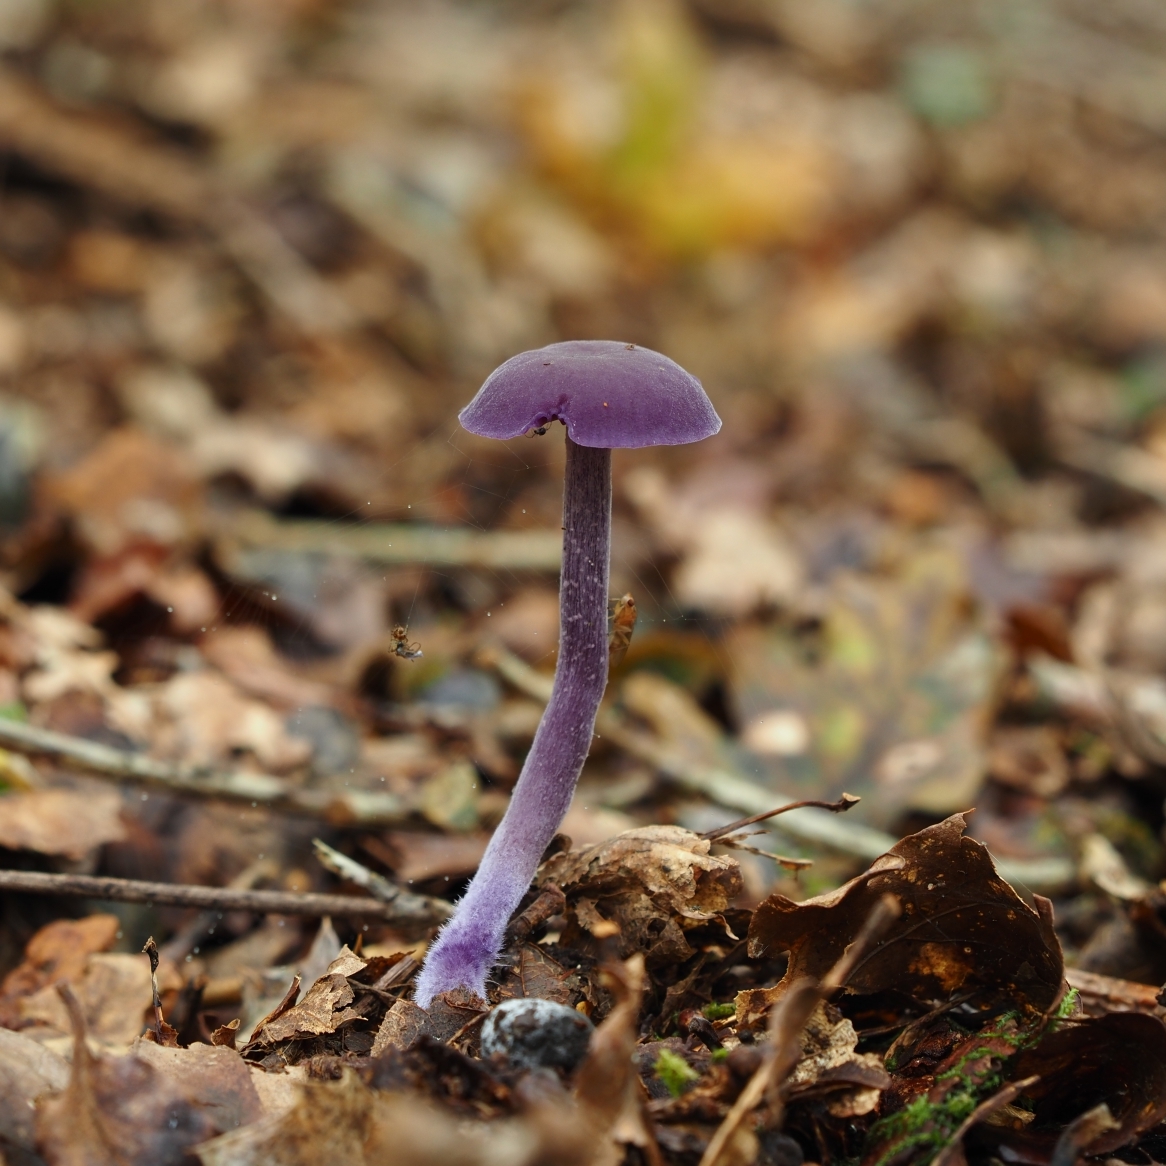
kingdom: Fungi
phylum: Basidiomycota
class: Agaricomycetes
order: Agaricales
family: Hydnangiaceae
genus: Laccaria
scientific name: Laccaria amethystina
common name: Amethyst deceiver
